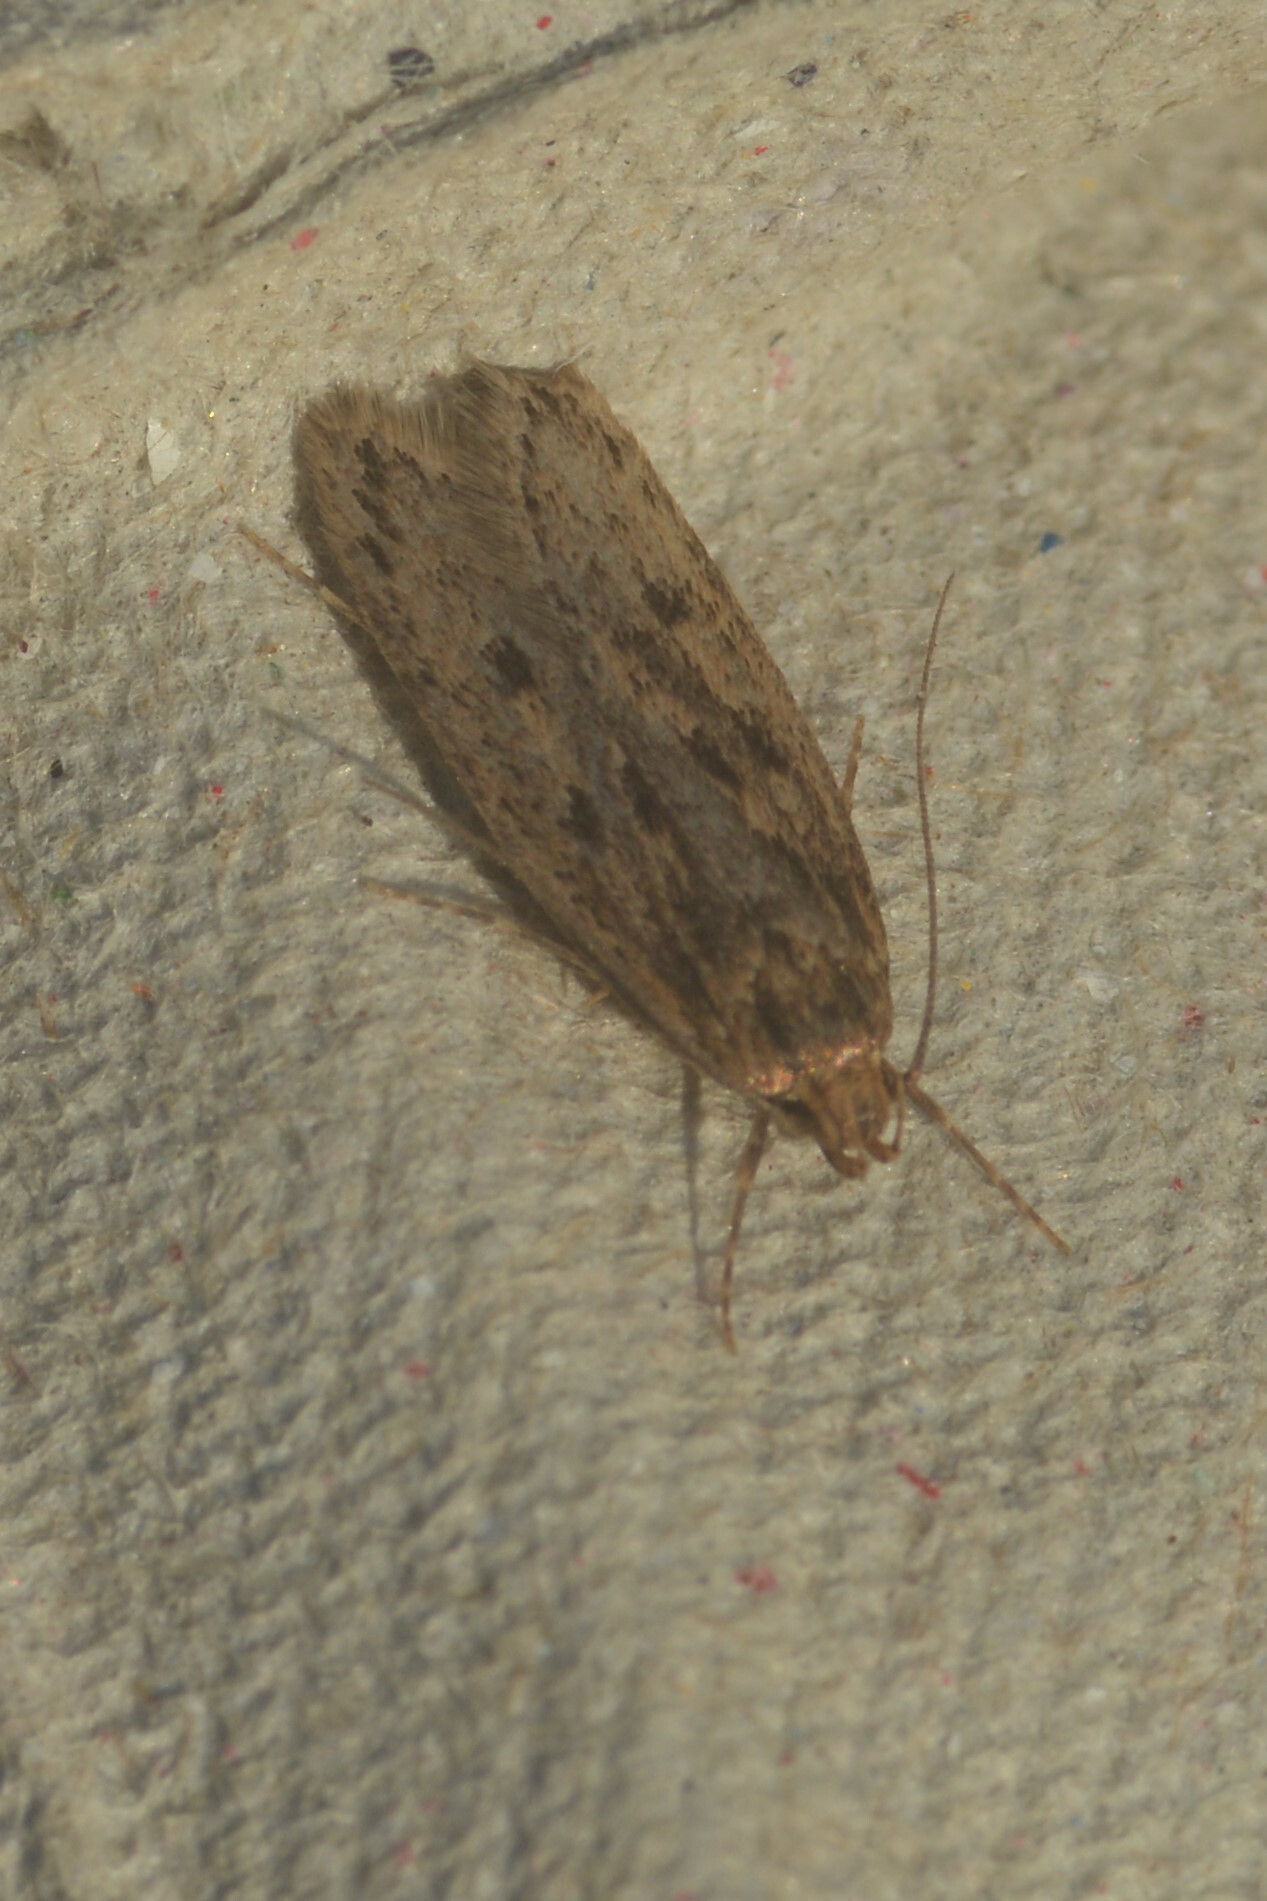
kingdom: Animalia
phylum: Arthropoda
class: Insecta
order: Lepidoptera
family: Oecophoridae
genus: Hofmannophila
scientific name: Hofmannophila pseudospretella
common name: Brown house moth
